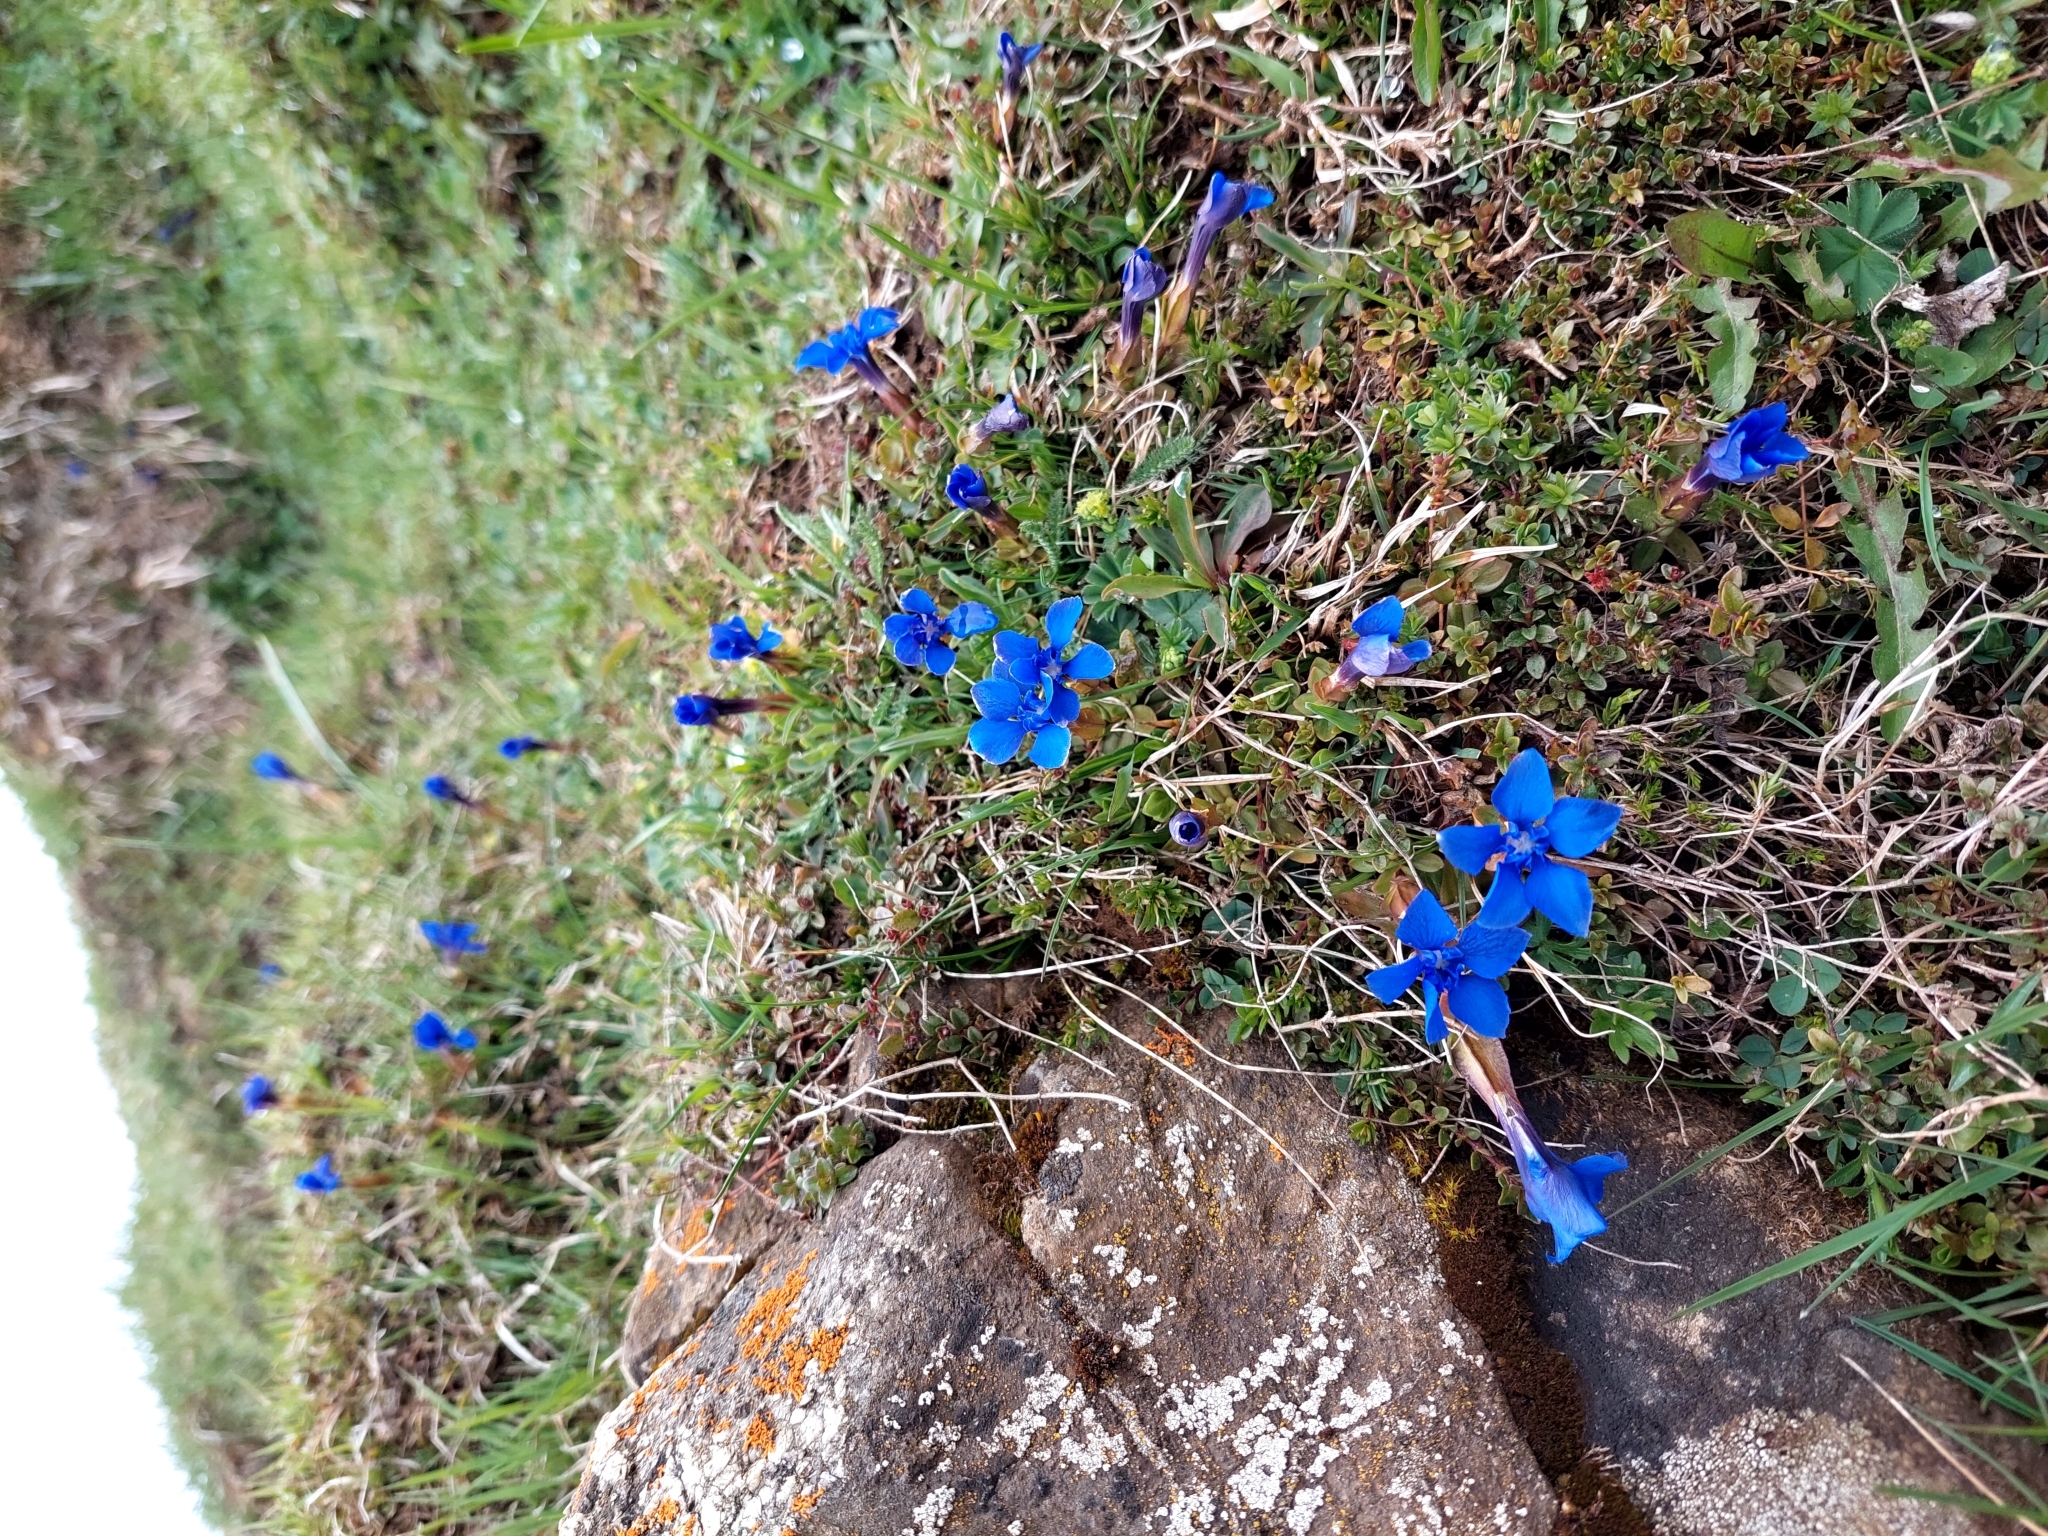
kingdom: Plantae
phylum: Tracheophyta
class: Magnoliopsida
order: Gentianales
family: Gentianaceae
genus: Gentiana
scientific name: Gentiana verna
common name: Spring gentian
